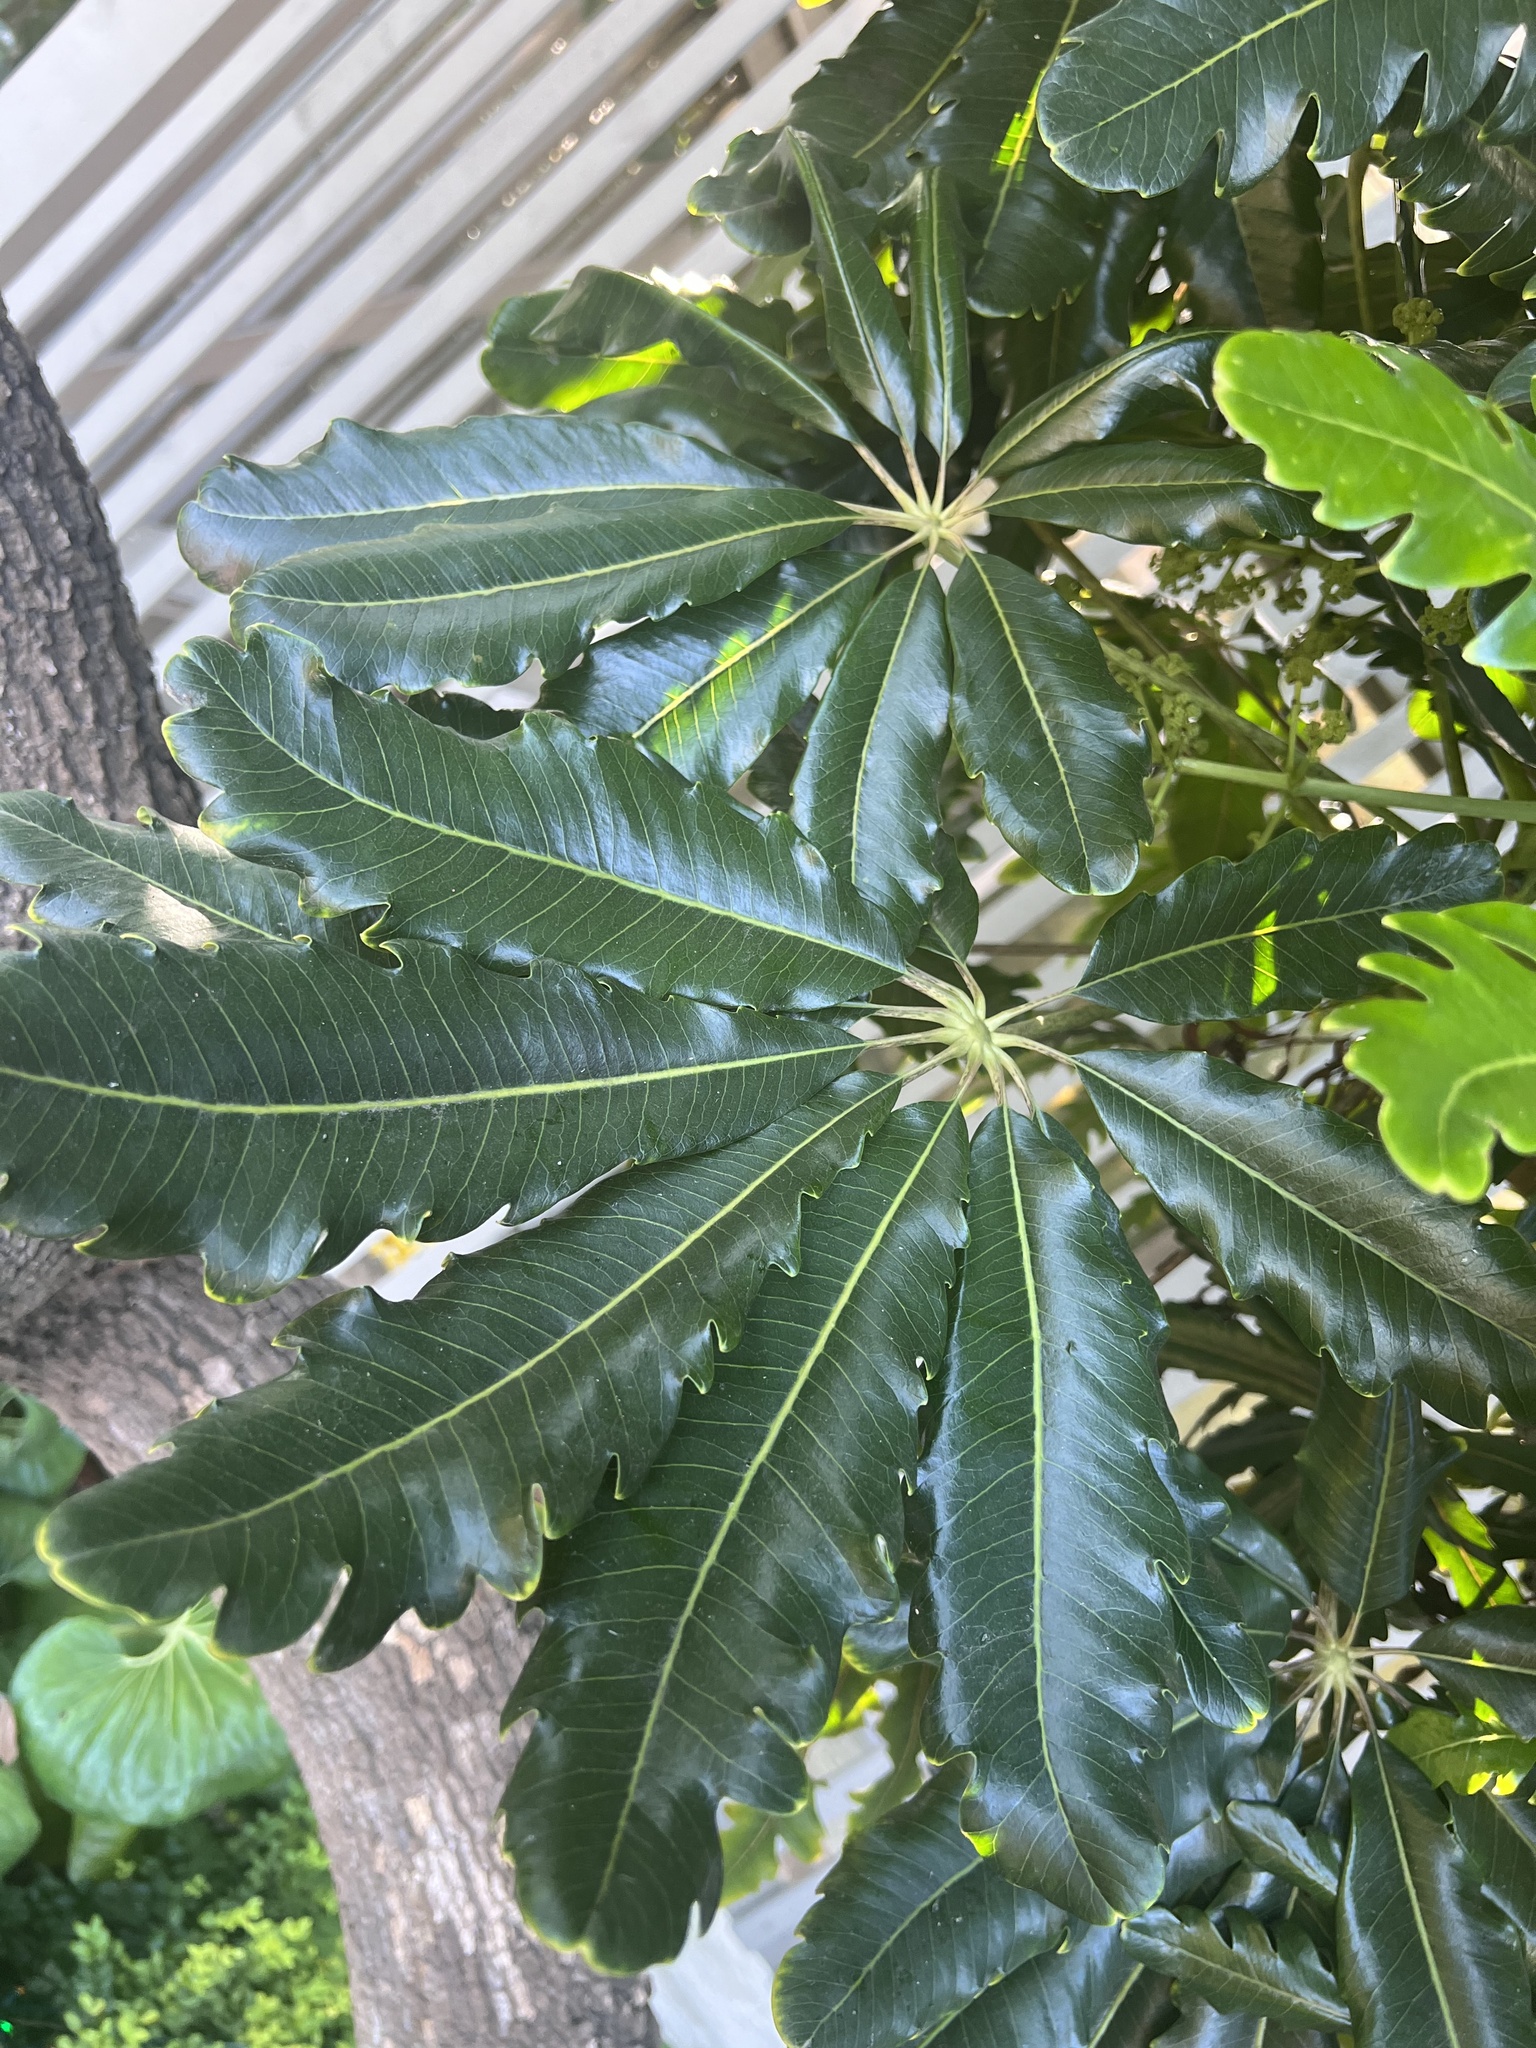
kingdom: Plantae
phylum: Tracheophyta
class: Magnoliopsida
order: Apiales
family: Araliaceae
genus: Plerandra
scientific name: Plerandra elegantissima
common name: False aralia
